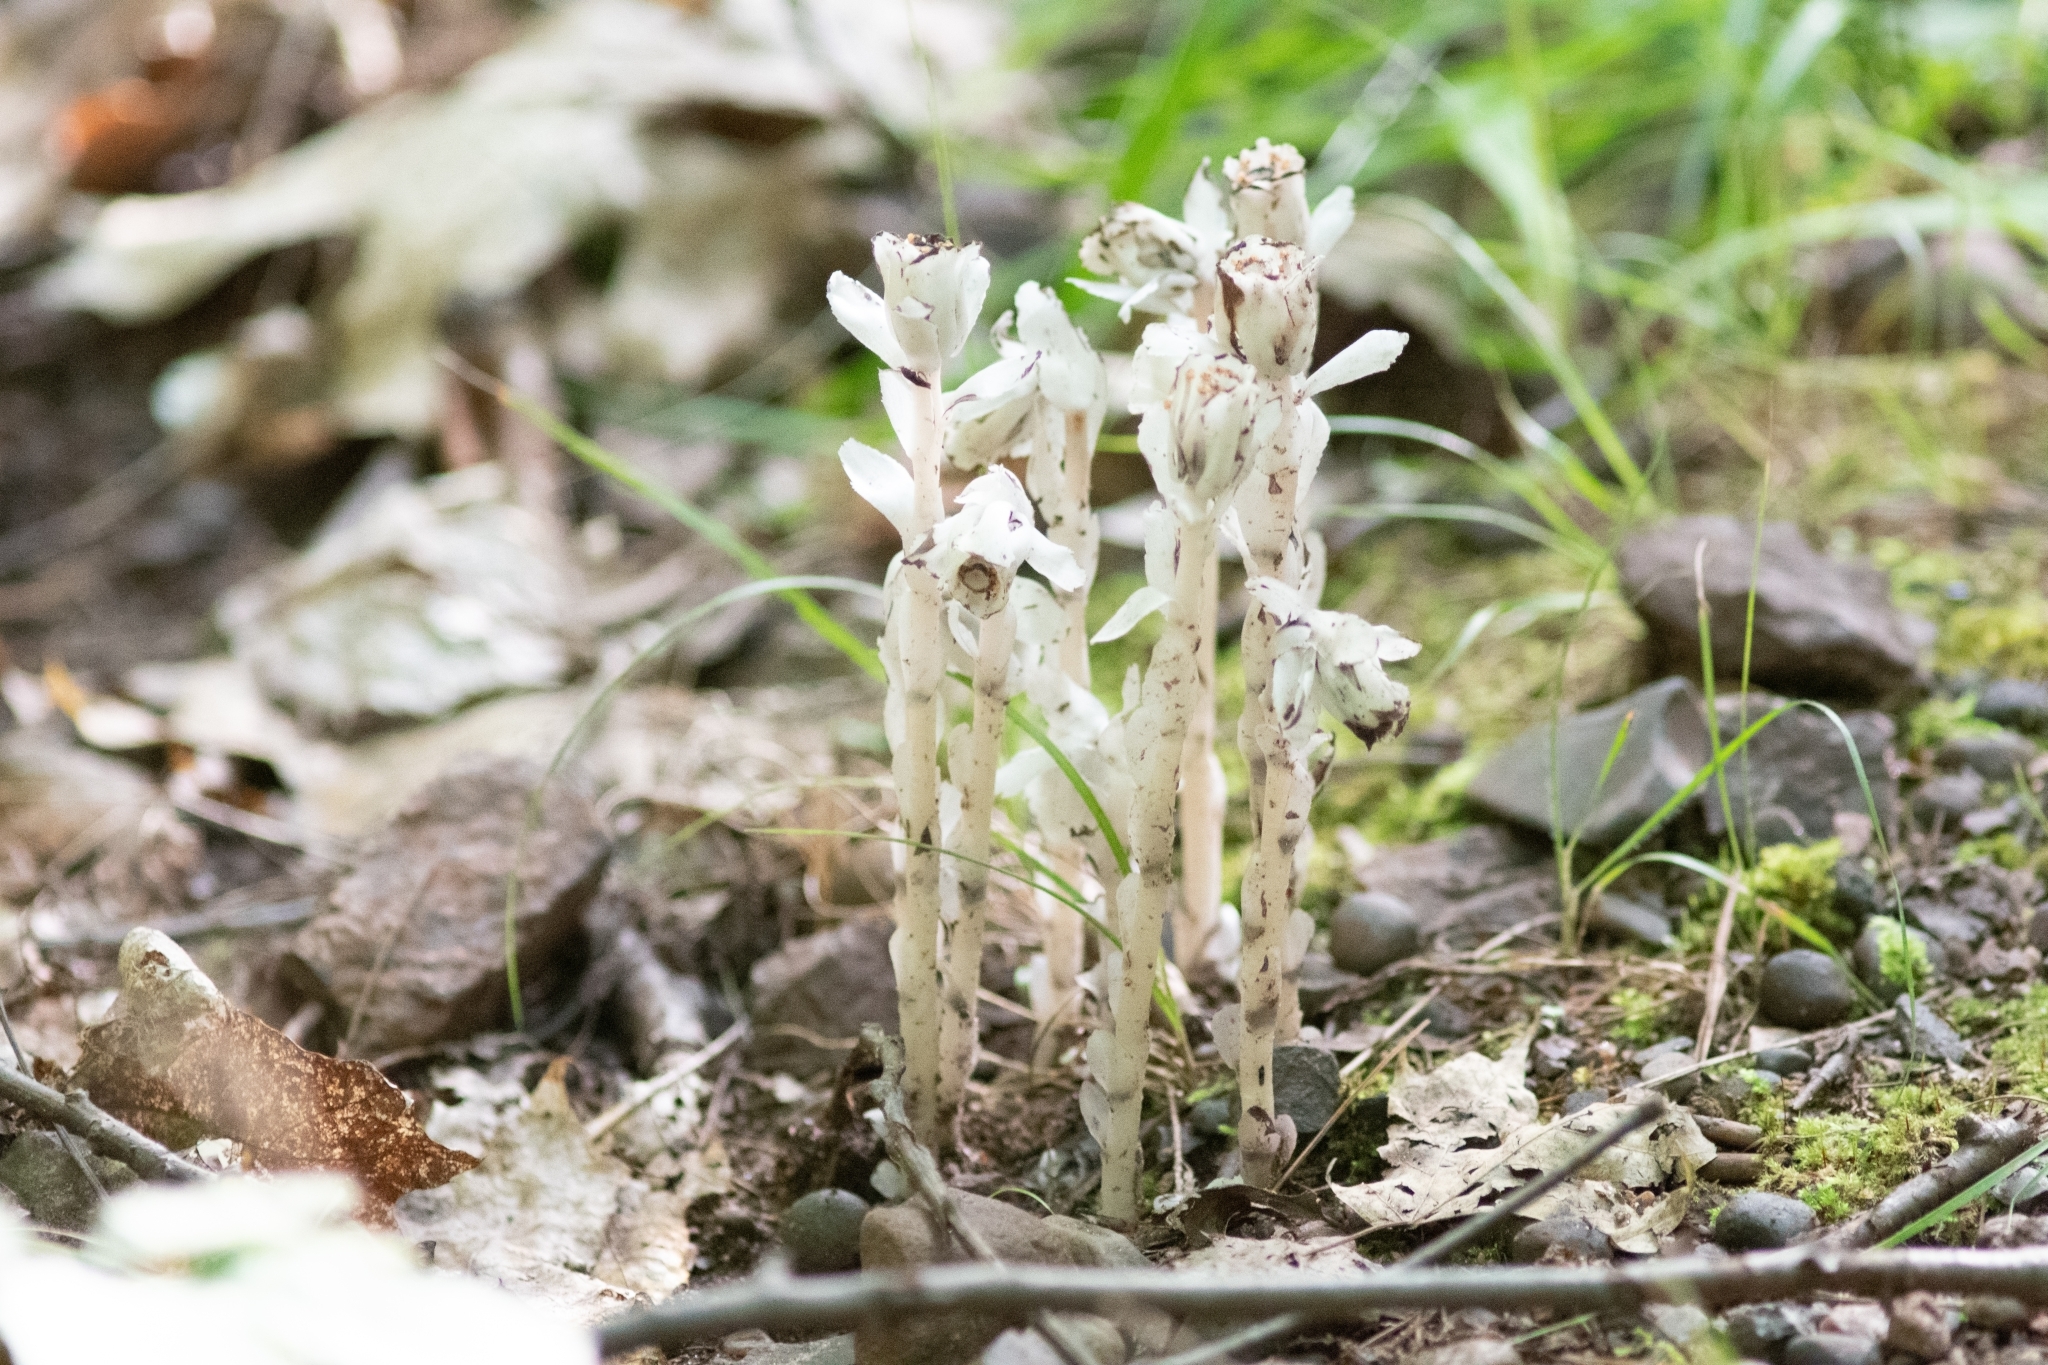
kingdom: Plantae
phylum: Tracheophyta
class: Magnoliopsida
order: Ericales
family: Ericaceae
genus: Monotropa
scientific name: Monotropa uniflora
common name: Convulsion root
